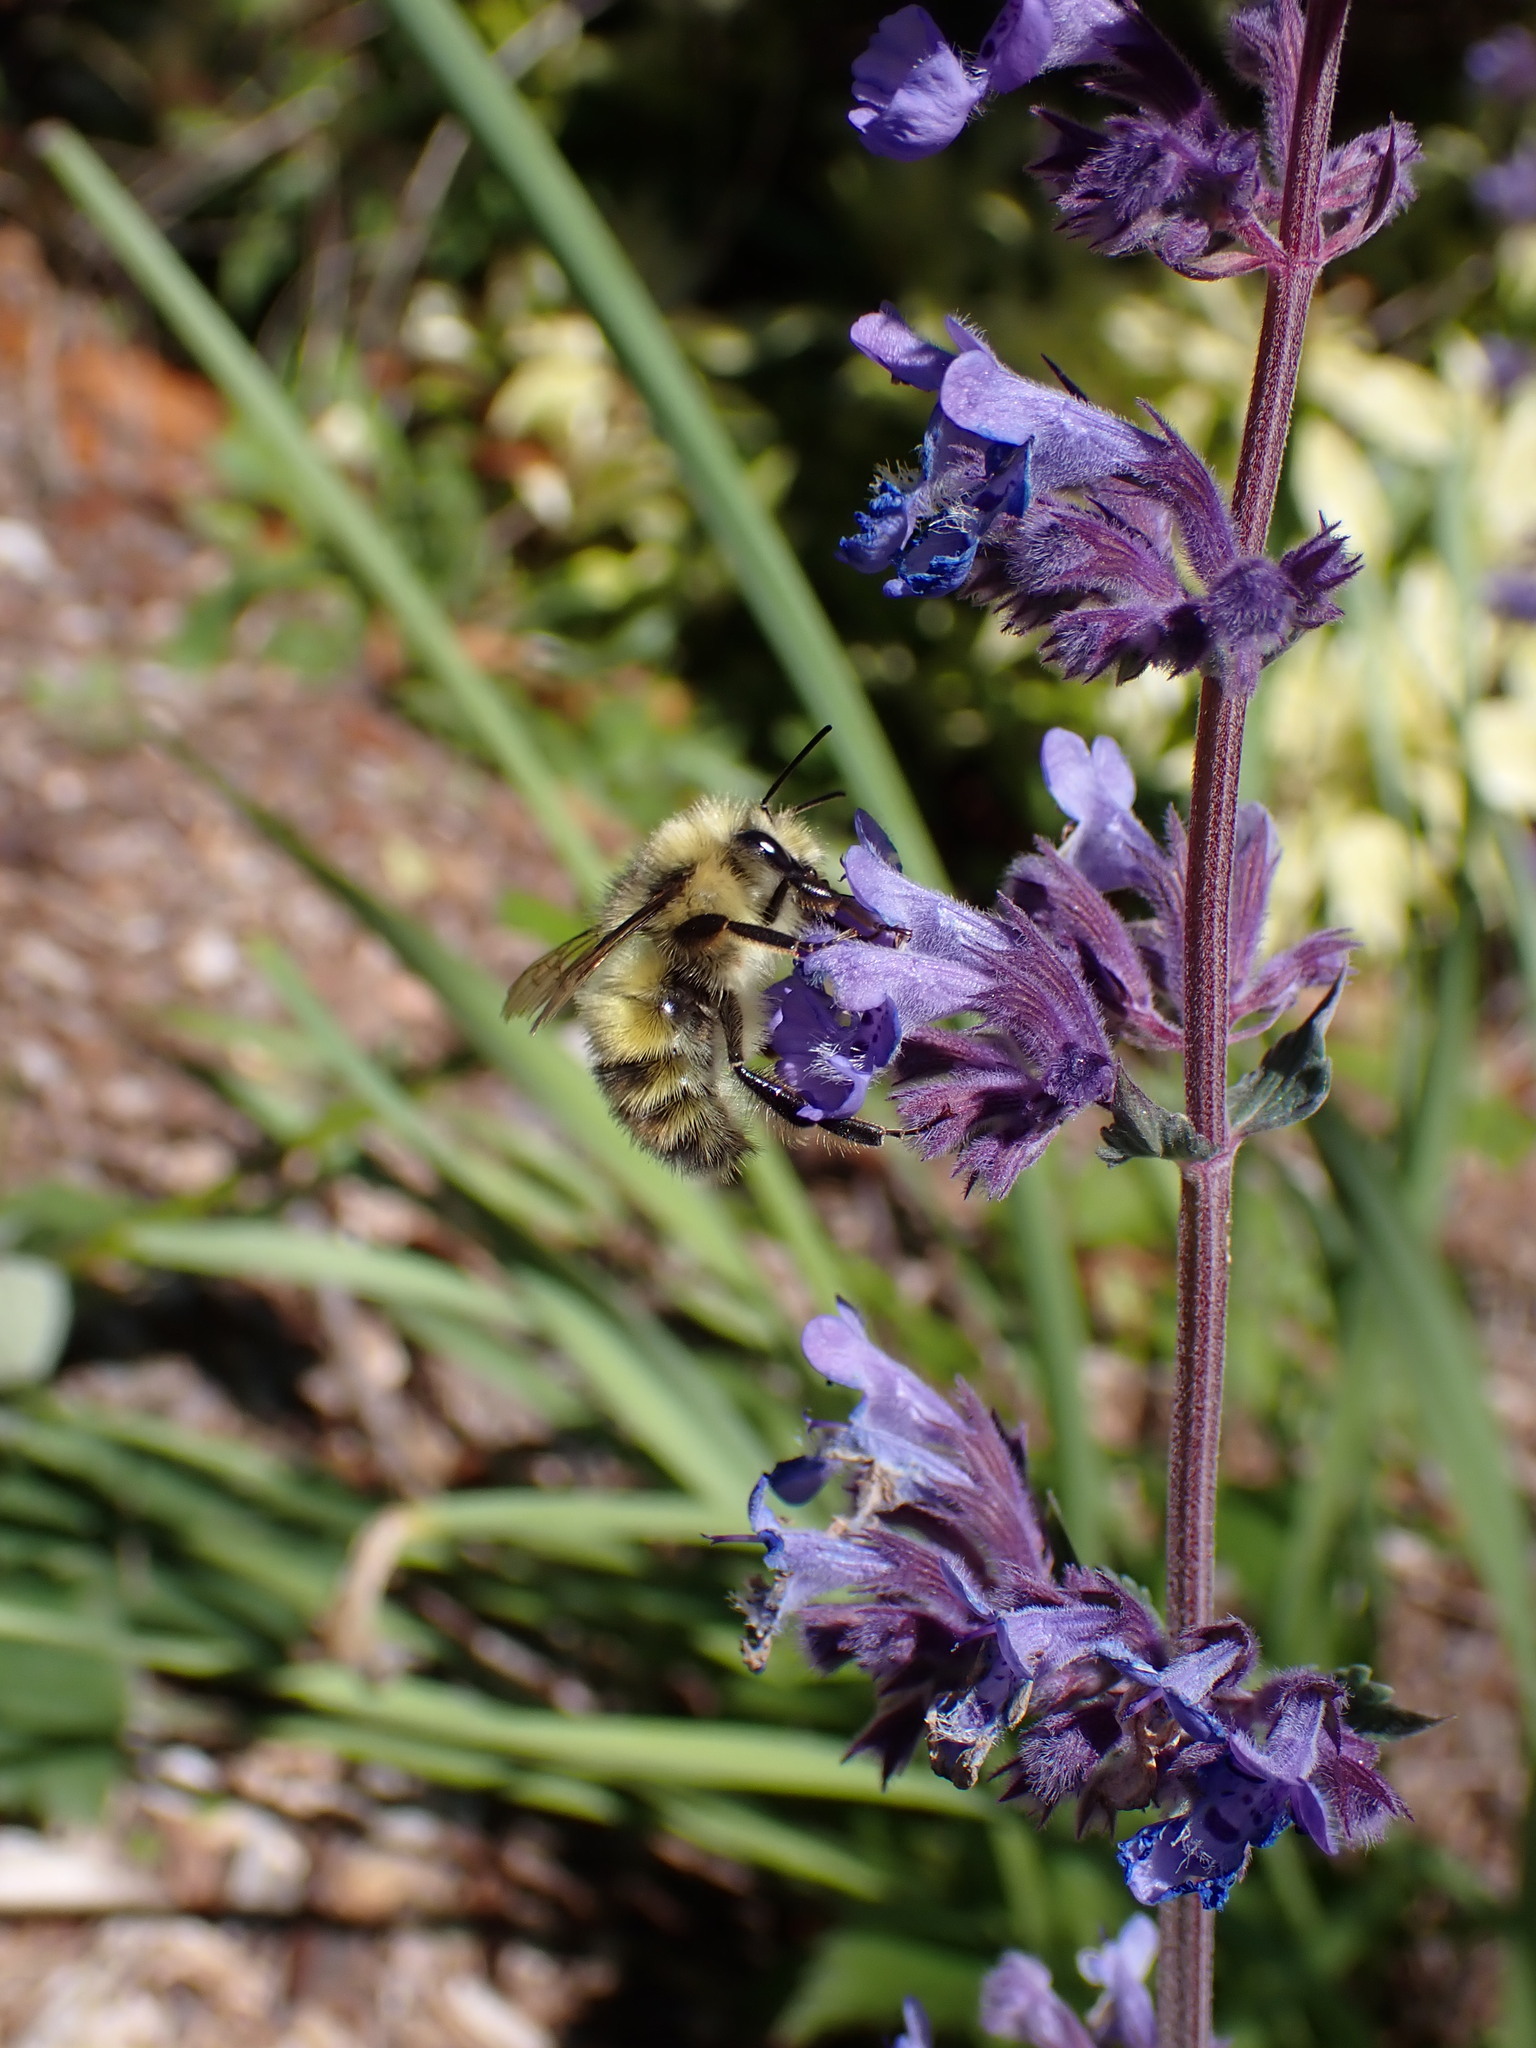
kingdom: Animalia
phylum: Arthropoda
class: Insecta
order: Hymenoptera
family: Apidae
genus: Bombus
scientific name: Bombus flavifrons
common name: Yellow head bumble bee
